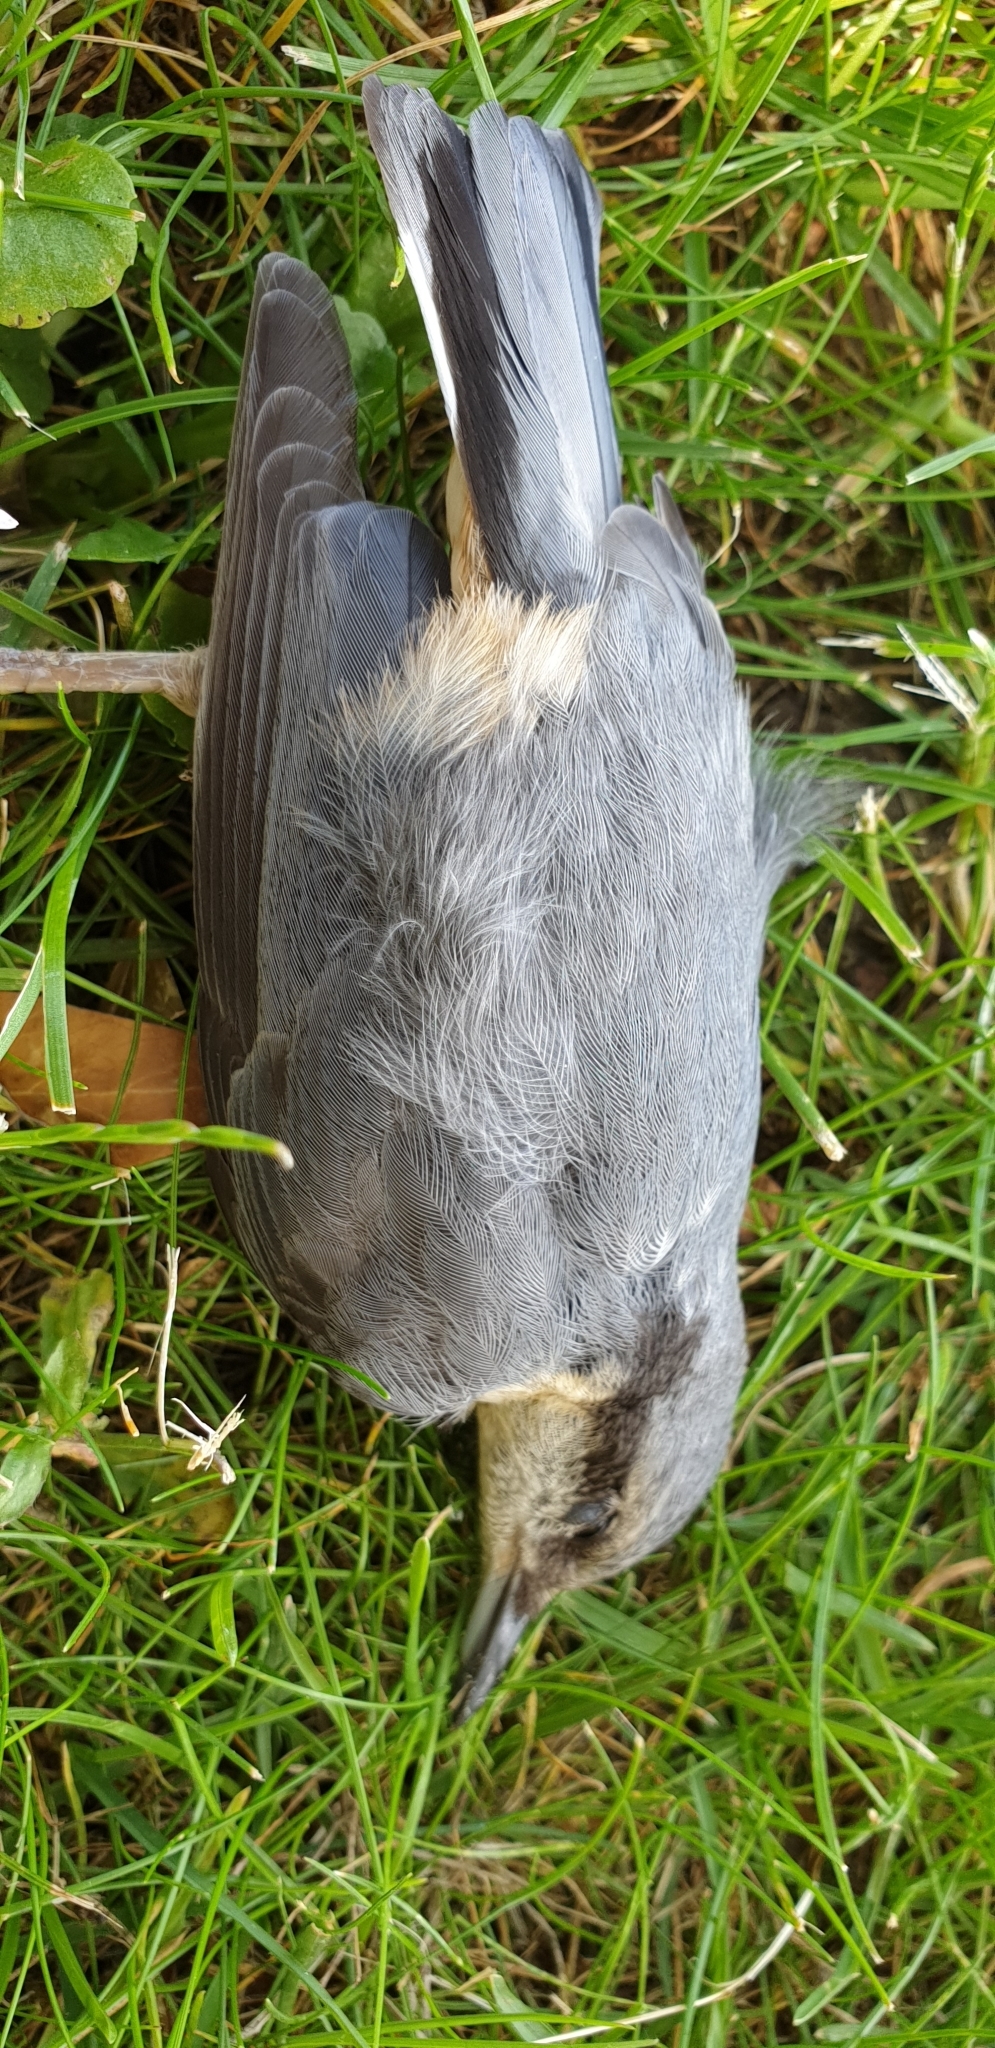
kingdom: Animalia
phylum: Chordata
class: Aves
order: Passeriformes
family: Sittidae
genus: Sitta
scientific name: Sitta europaea
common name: Eurasian nuthatch
